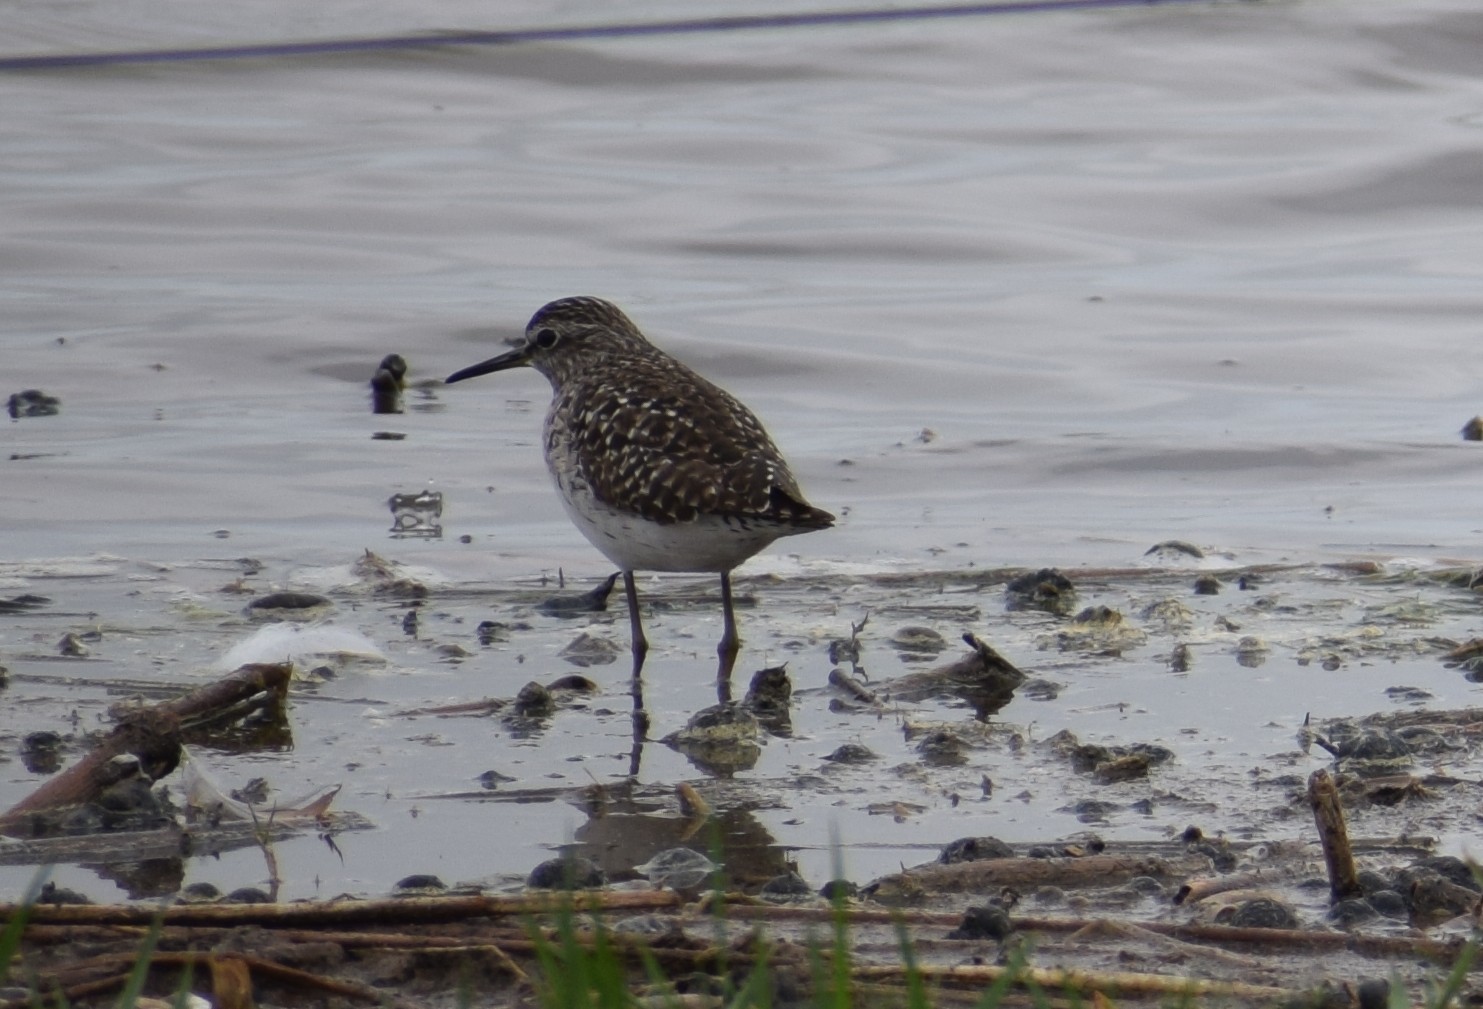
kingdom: Animalia
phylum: Chordata
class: Aves
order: Charadriiformes
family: Scolopacidae
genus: Tringa
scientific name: Tringa glareola
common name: Wood sandpiper
